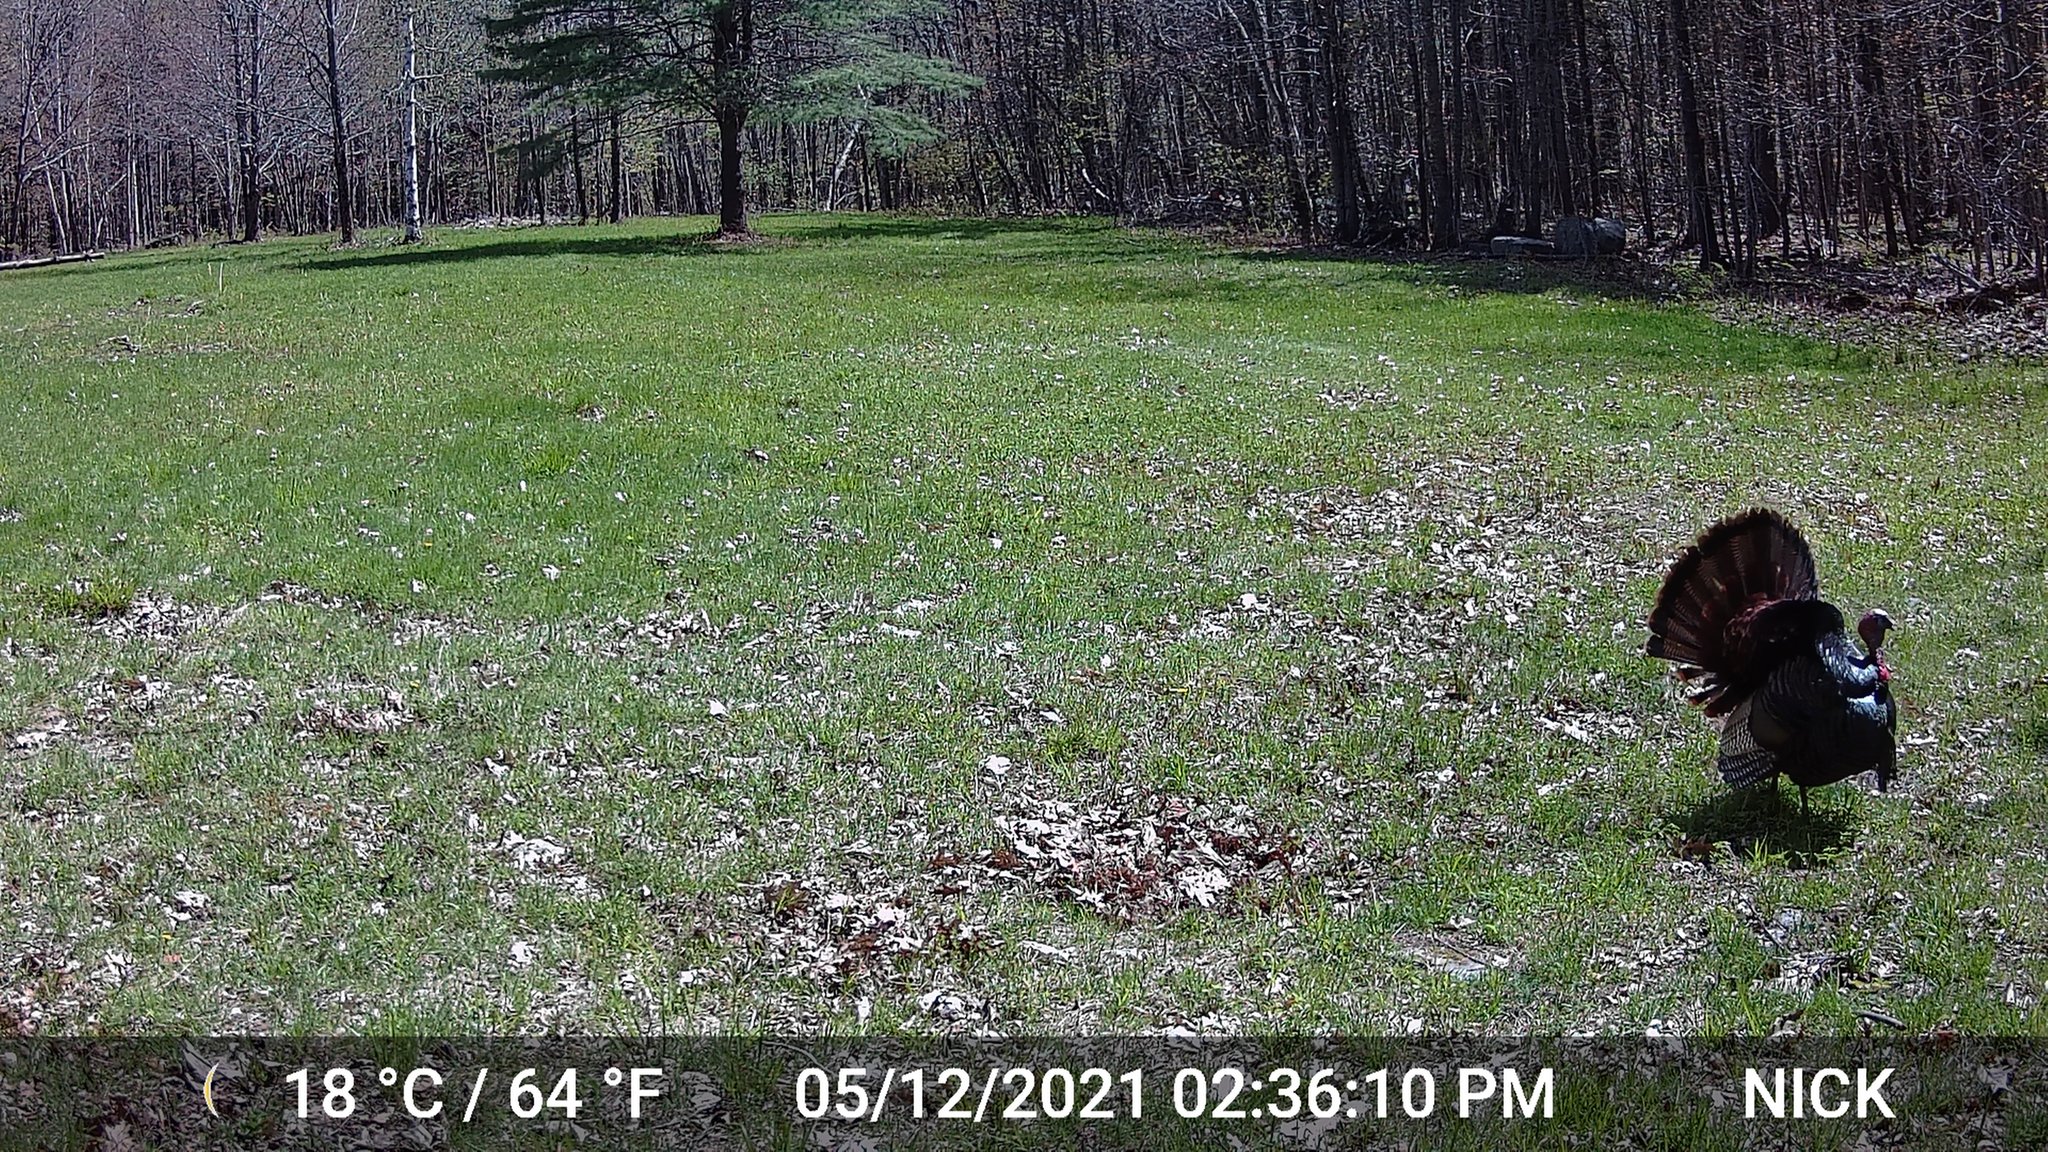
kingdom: Animalia
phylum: Chordata
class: Aves
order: Galliformes
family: Phasianidae
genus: Meleagris
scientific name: Meleagris gallopavo
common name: Wild turkey
